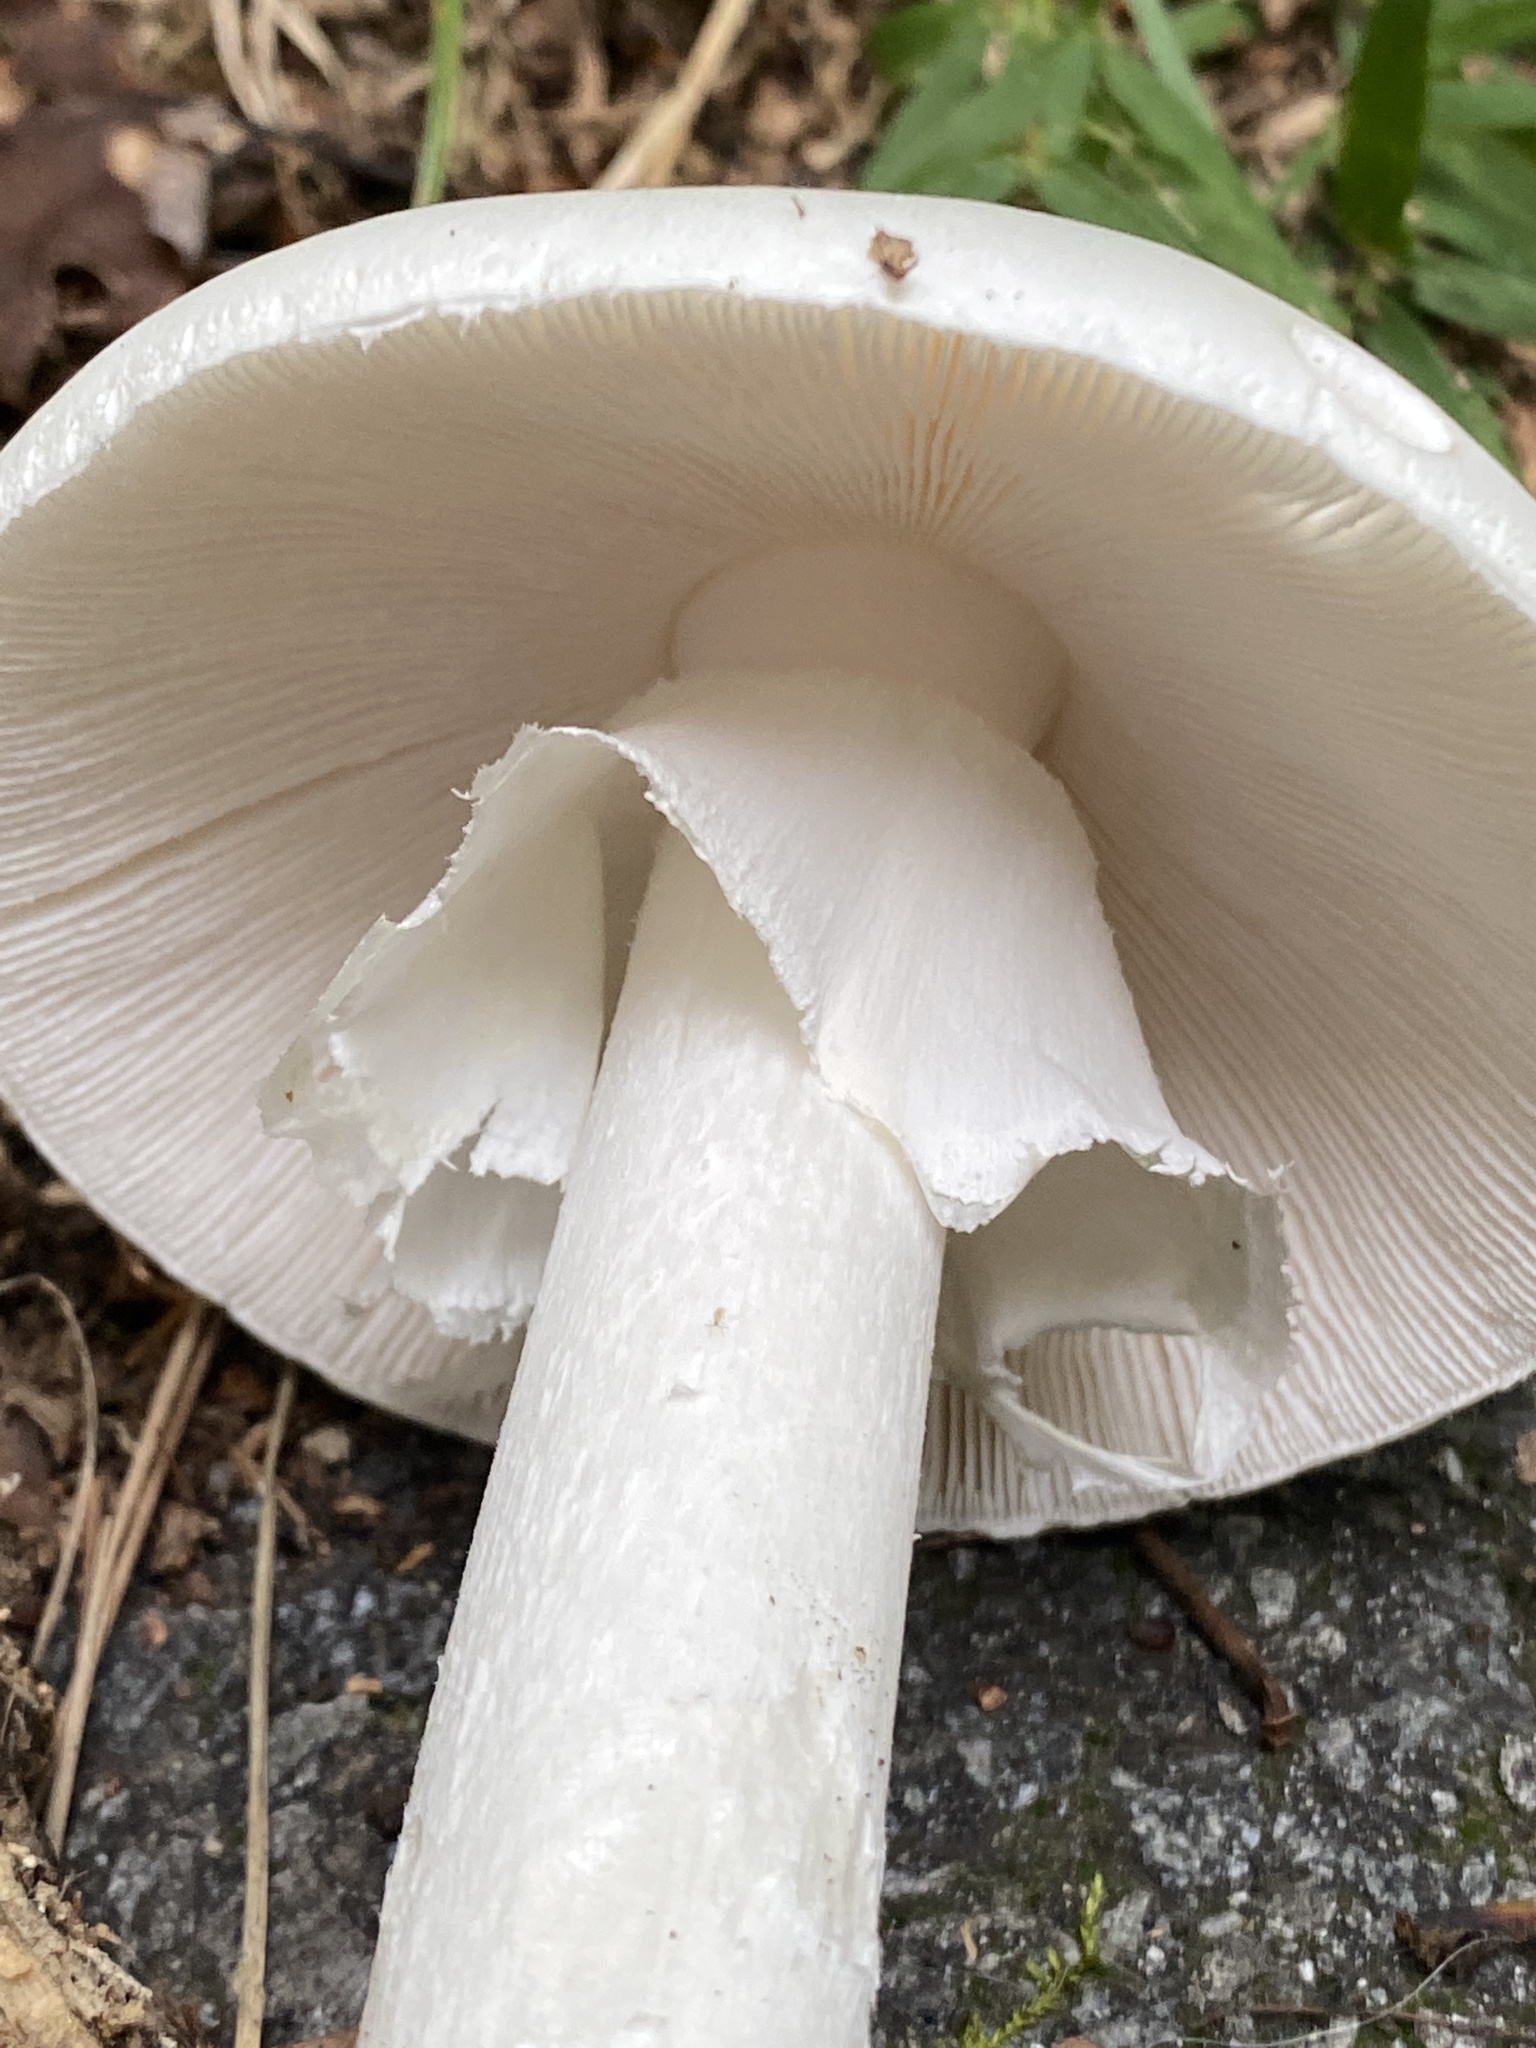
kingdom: Fungi
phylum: Basidiomycota
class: Agaricomycetes
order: Agaricales
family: Amanitaceae
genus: Amanita
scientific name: Amanita bisporigera
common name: Eastern north american destroying angel
